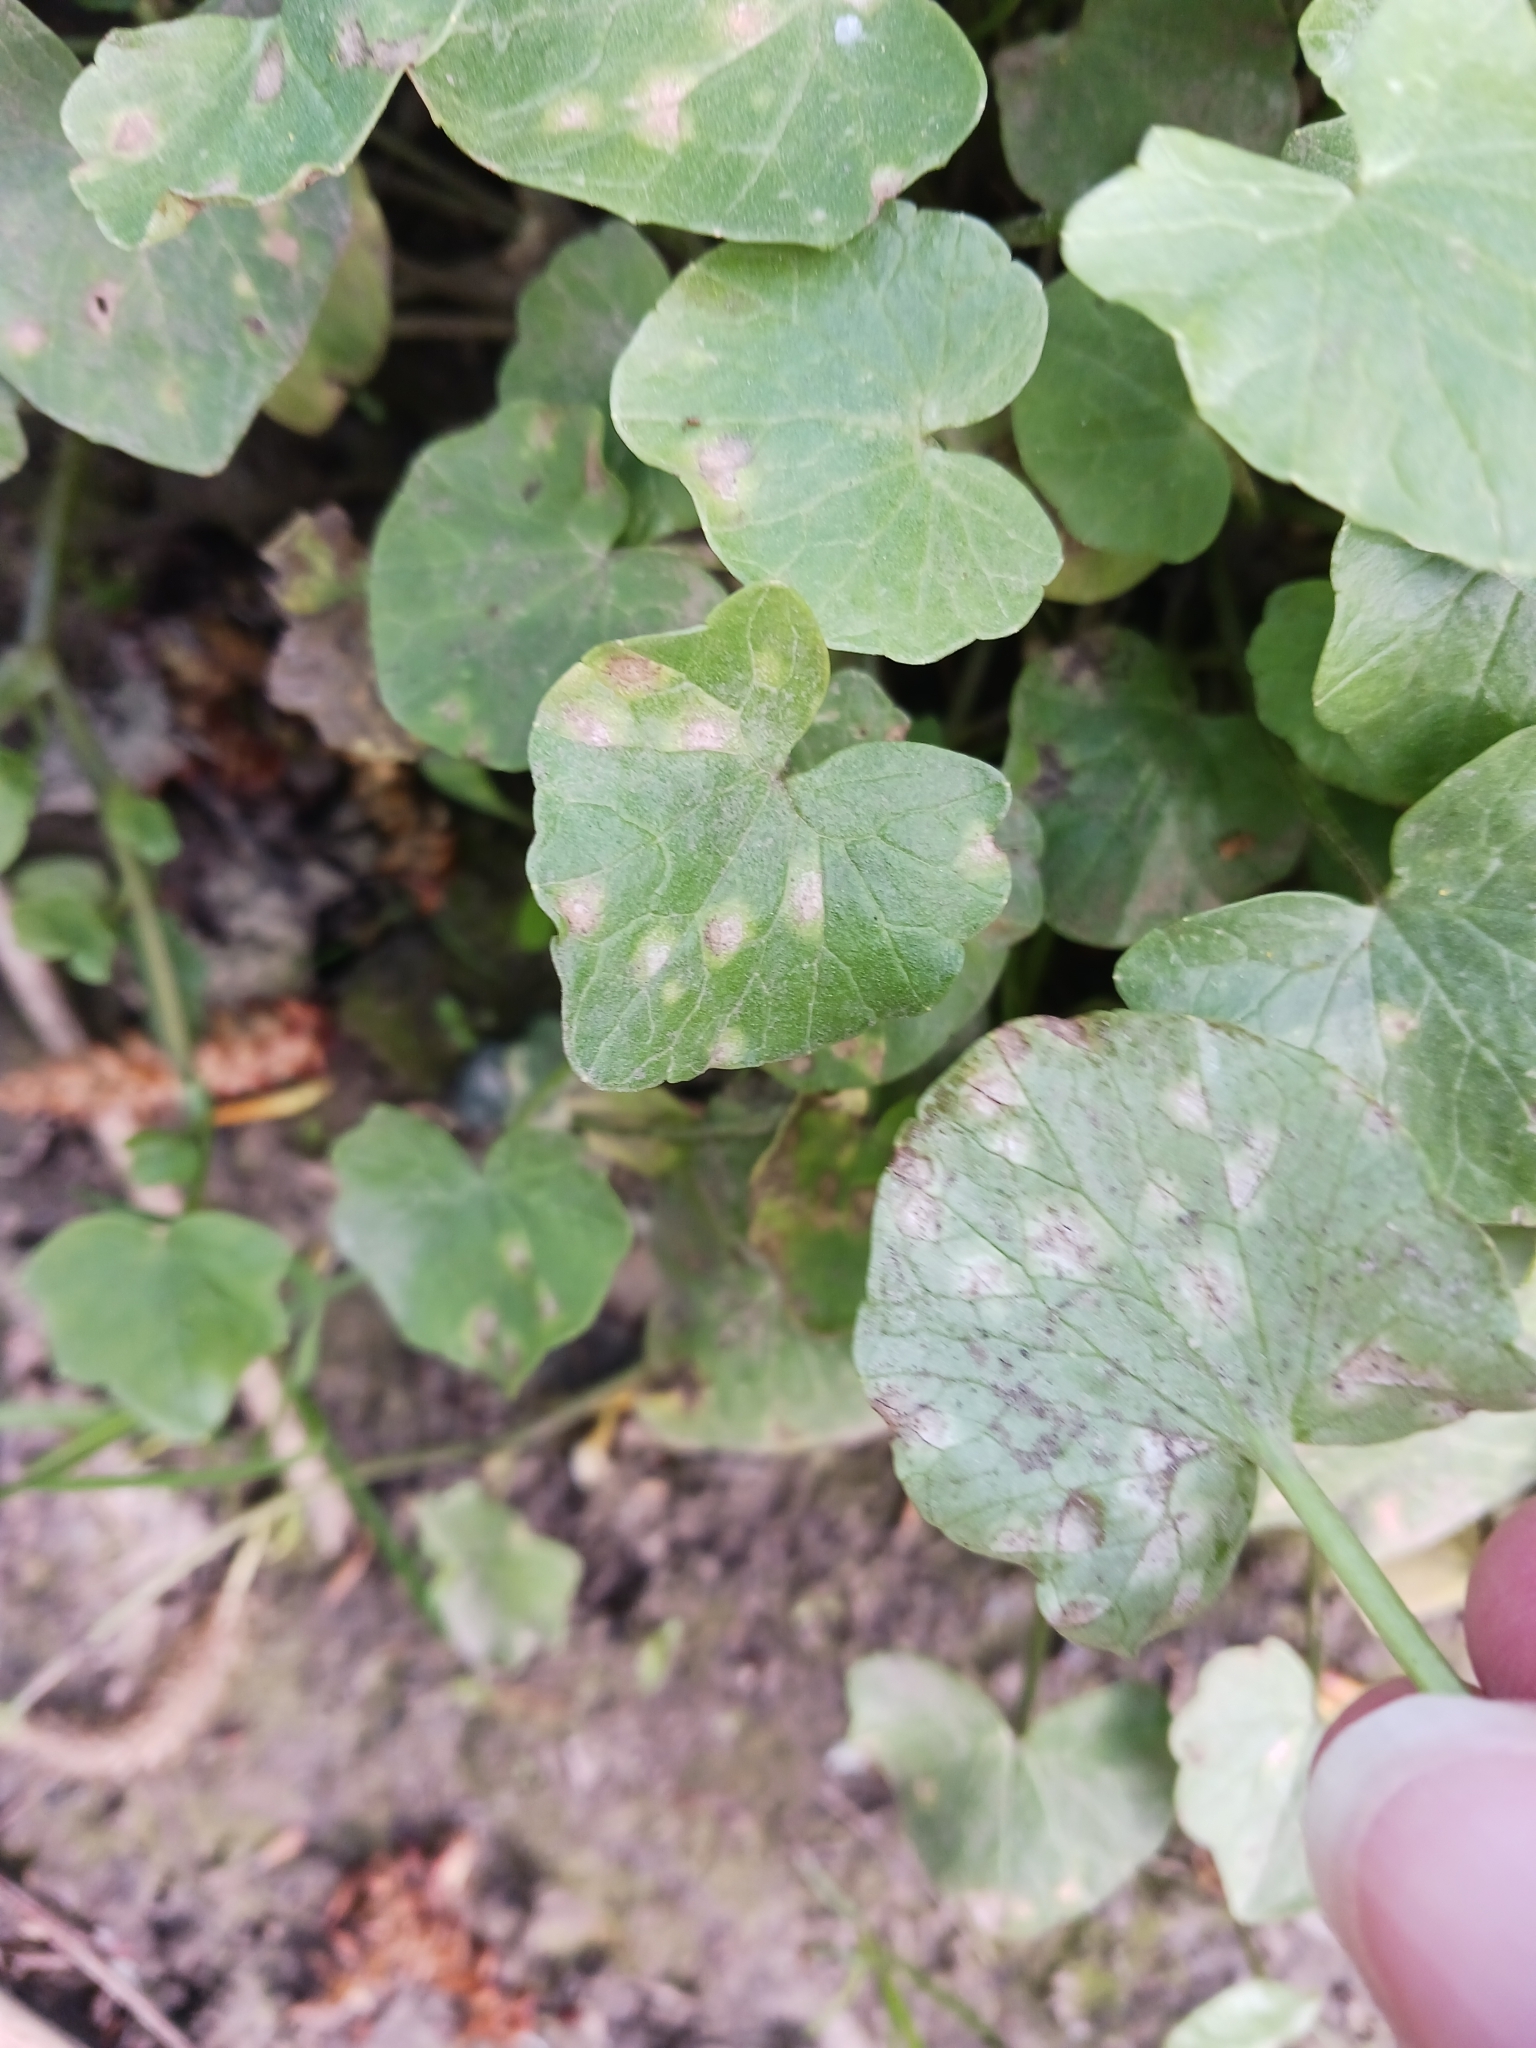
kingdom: Fungi
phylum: Basidiomycota
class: Exobasidiomycetes
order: Entylomatales
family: Entylomataceae
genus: Entyloma
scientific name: Entyloma ficariae
